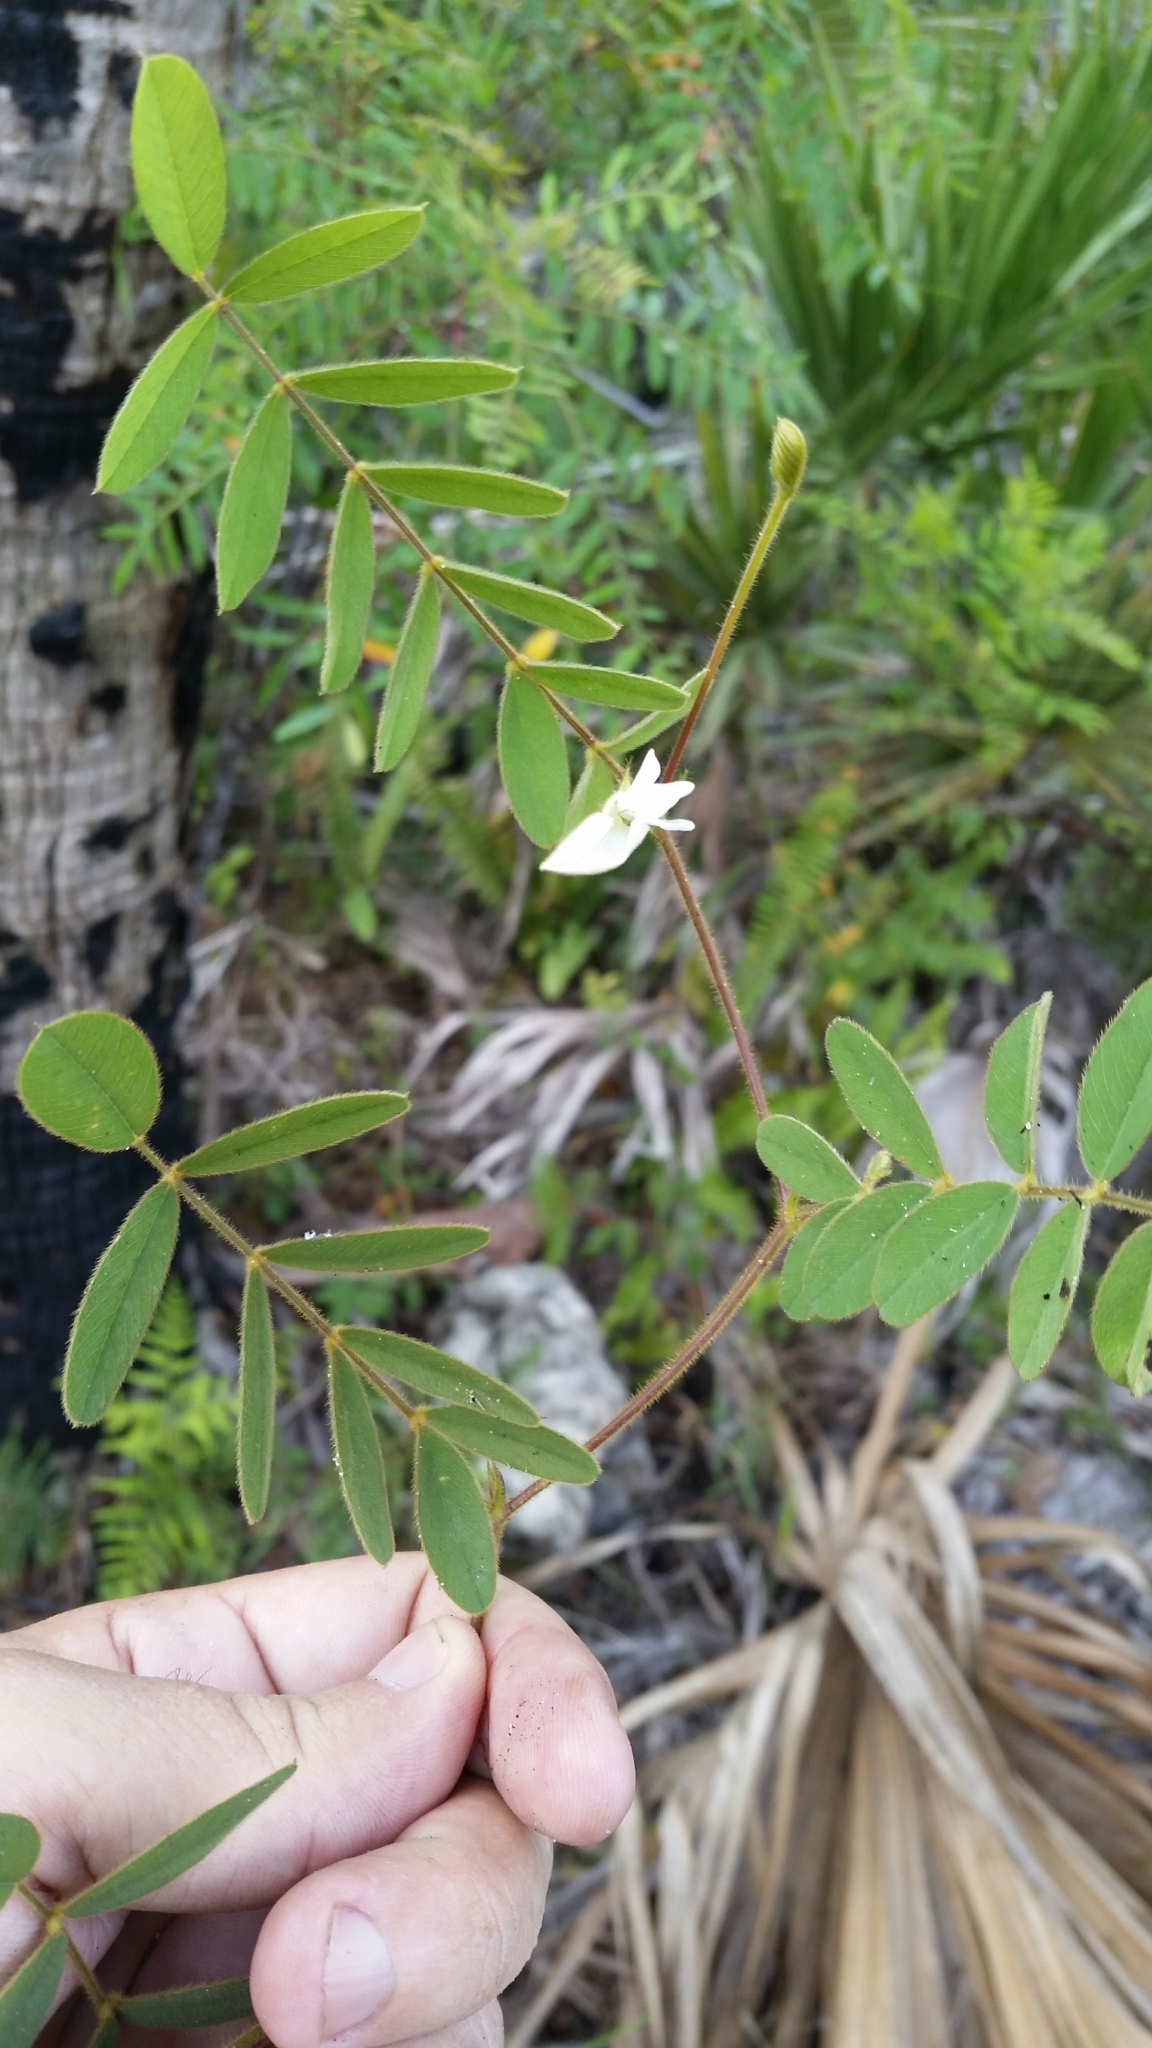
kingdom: Plantae
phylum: Tracheophyta
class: Magnoliopsida
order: Fabales
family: Fabaceae
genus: Tephrosia
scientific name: Tephrosia spicata
